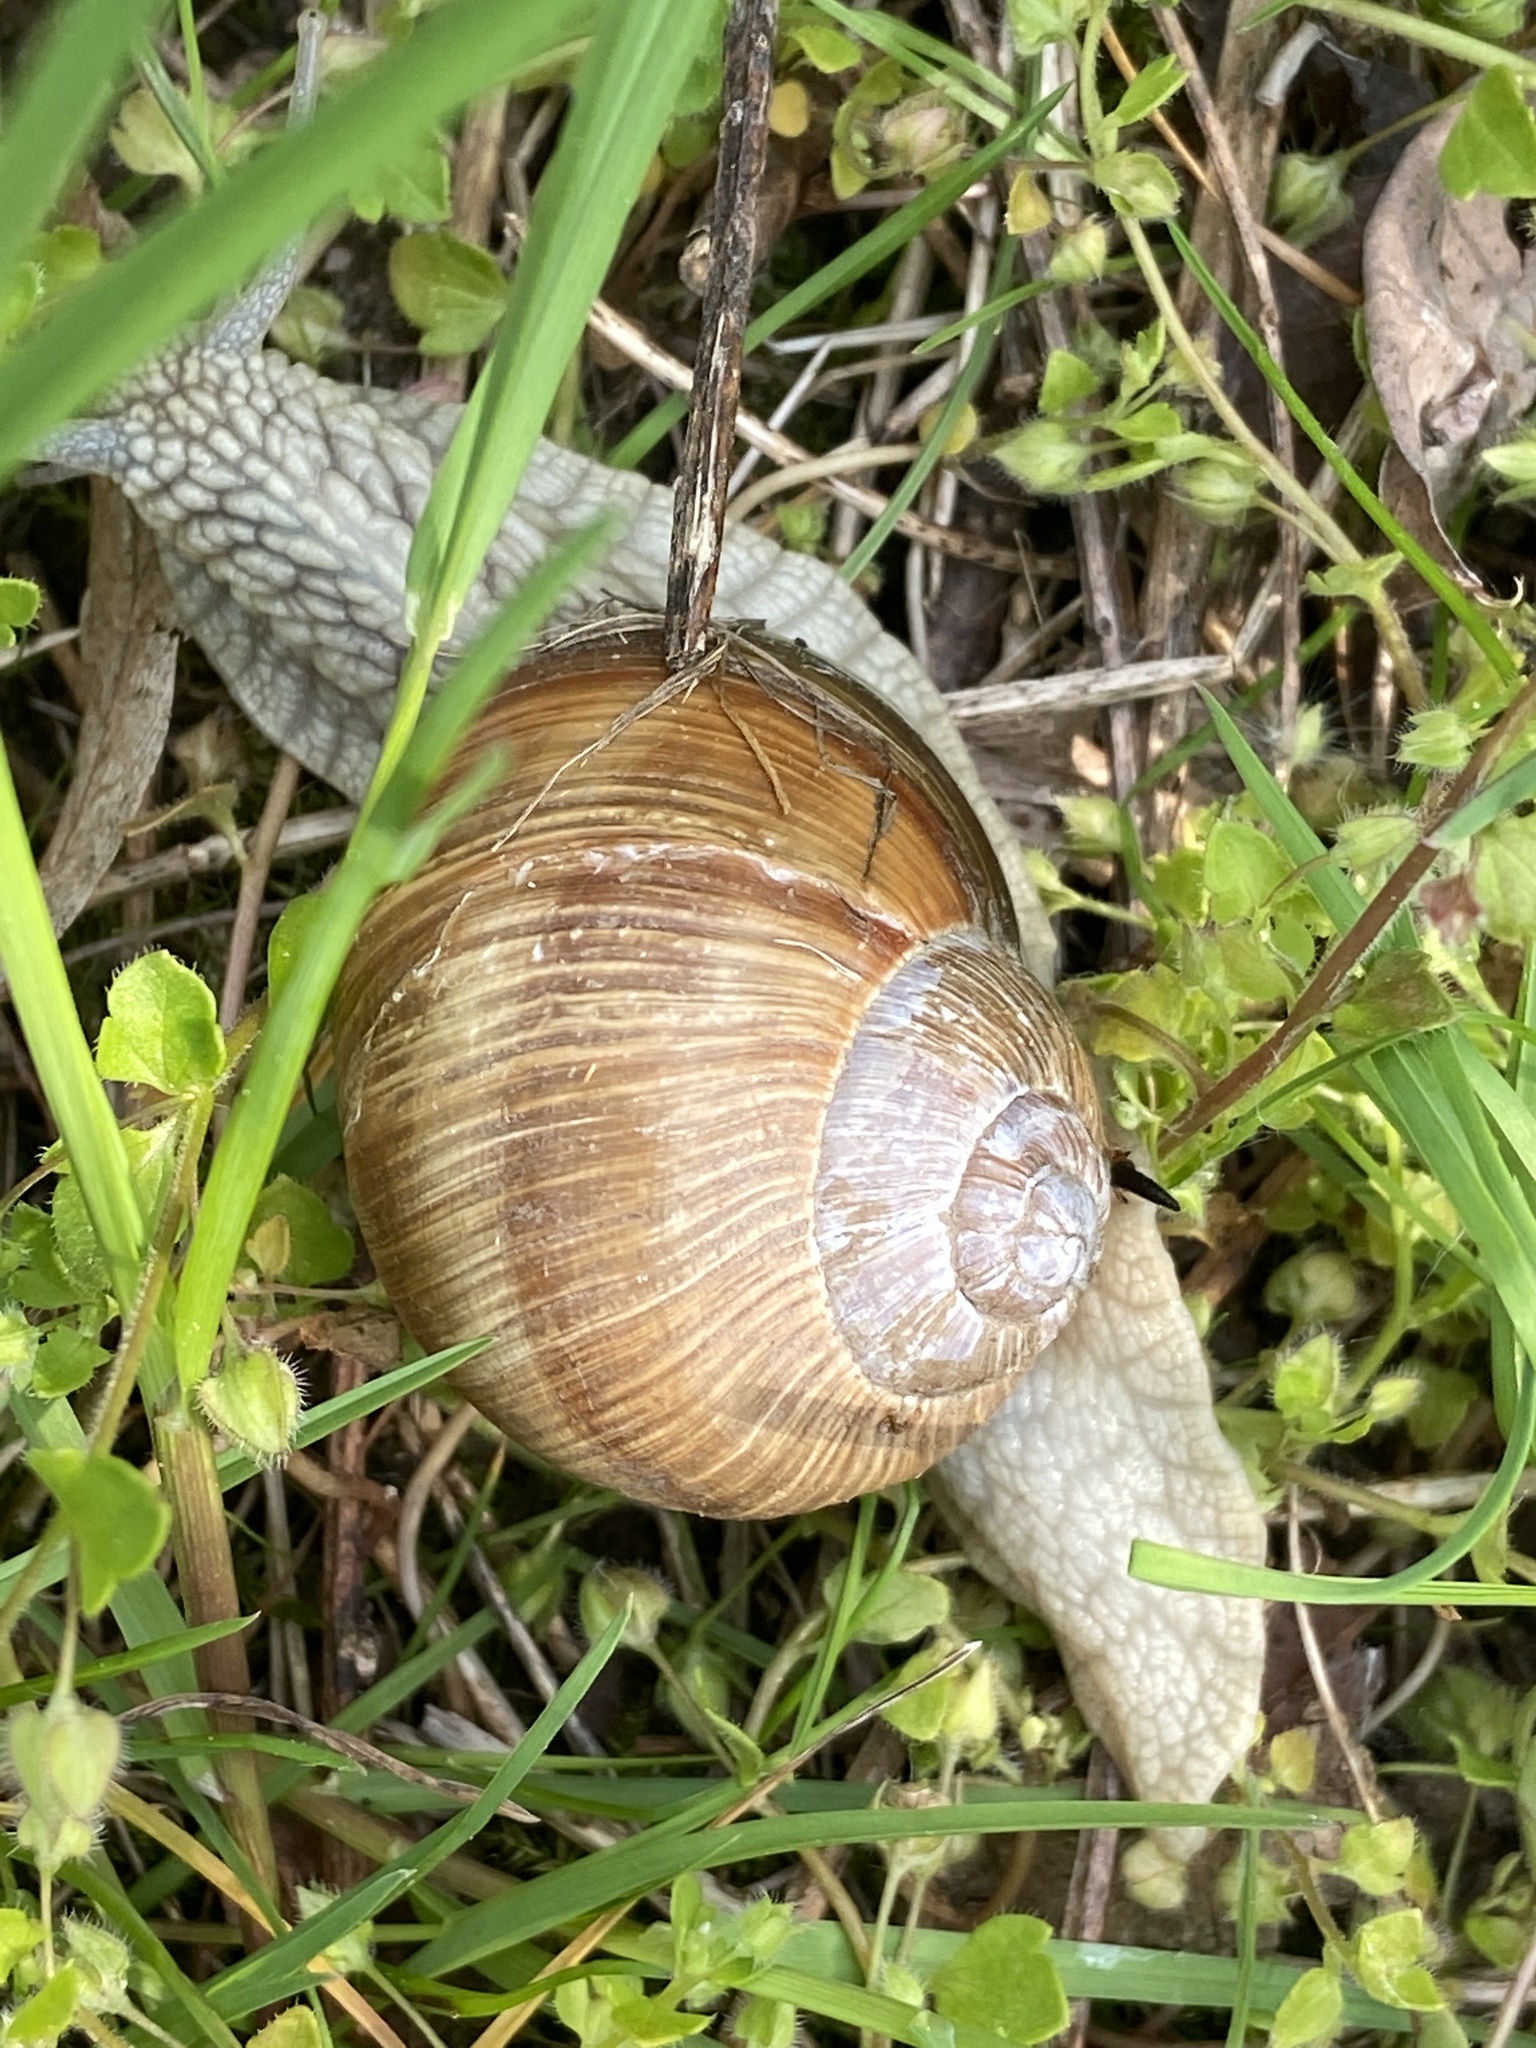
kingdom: Animalia
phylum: Mollusca
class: Gastropoda
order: Stylommatophora
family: Helicidae
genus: Helix
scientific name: Helix pomatia
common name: Roman snail
